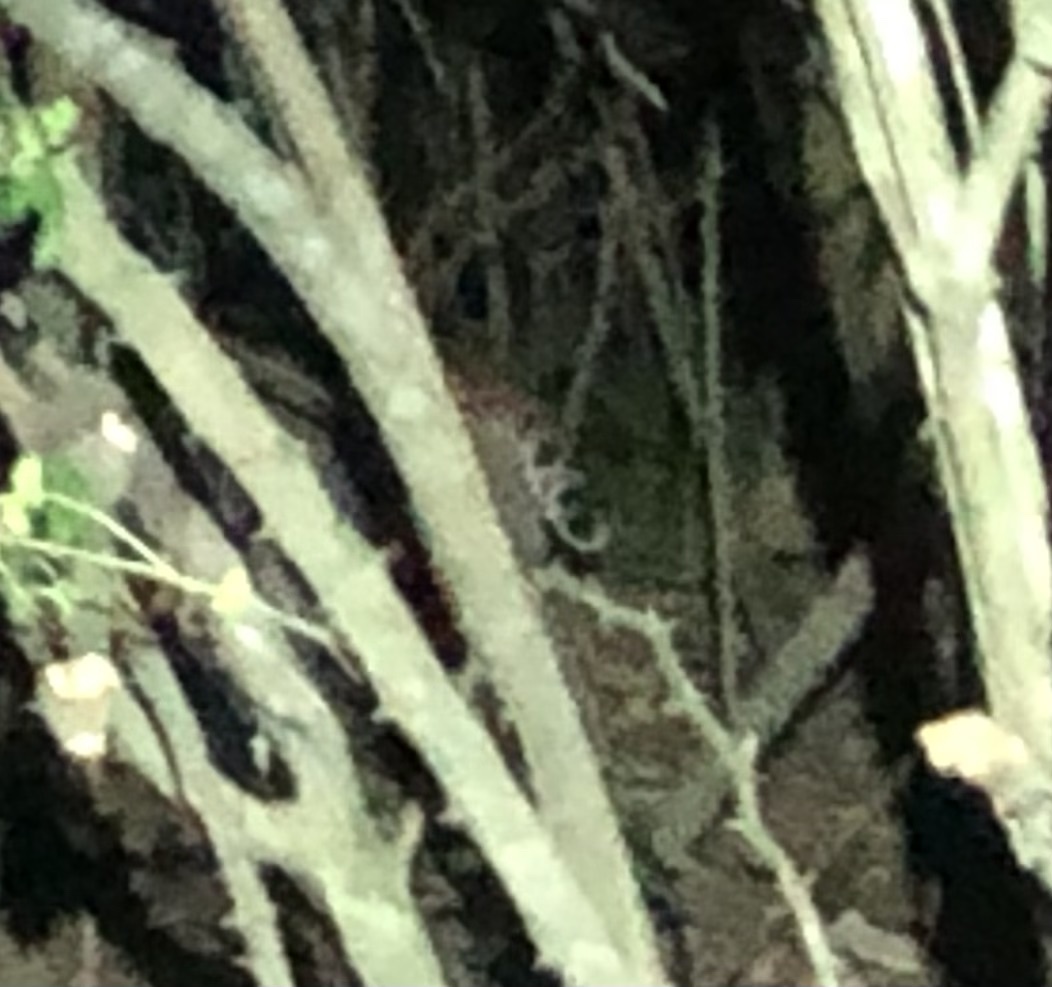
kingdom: Animalia
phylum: Chordata
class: Mammalia
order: Carnivora
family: Felidae
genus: Lynx
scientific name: Lynx rufus
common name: Bobcat
